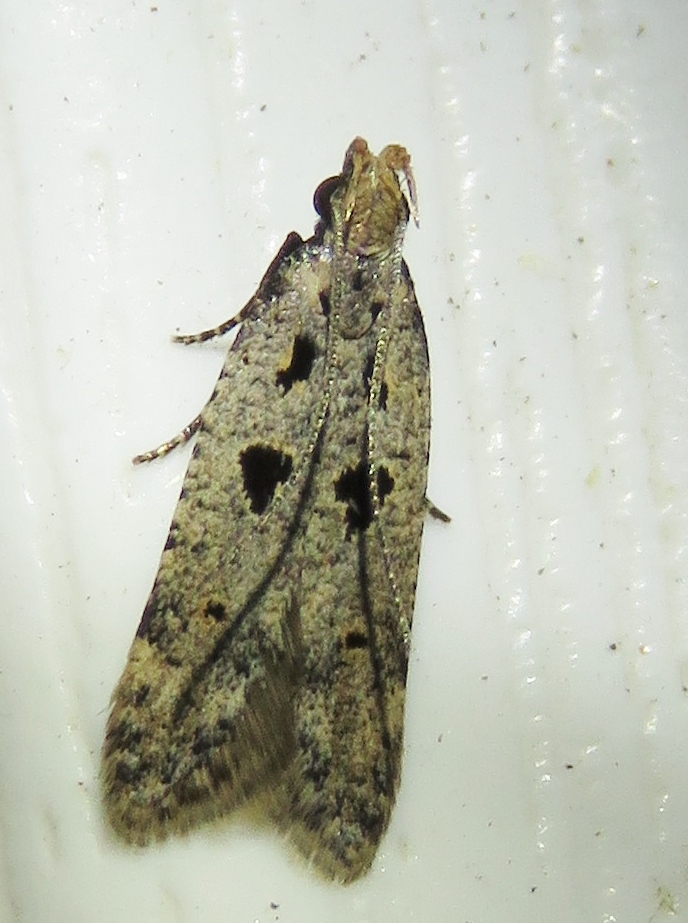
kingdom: Animalia
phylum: Arthropoda
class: Insecta
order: Lepidoptera
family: Gelechiidae
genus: Deltophora
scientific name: Deltophora sella
